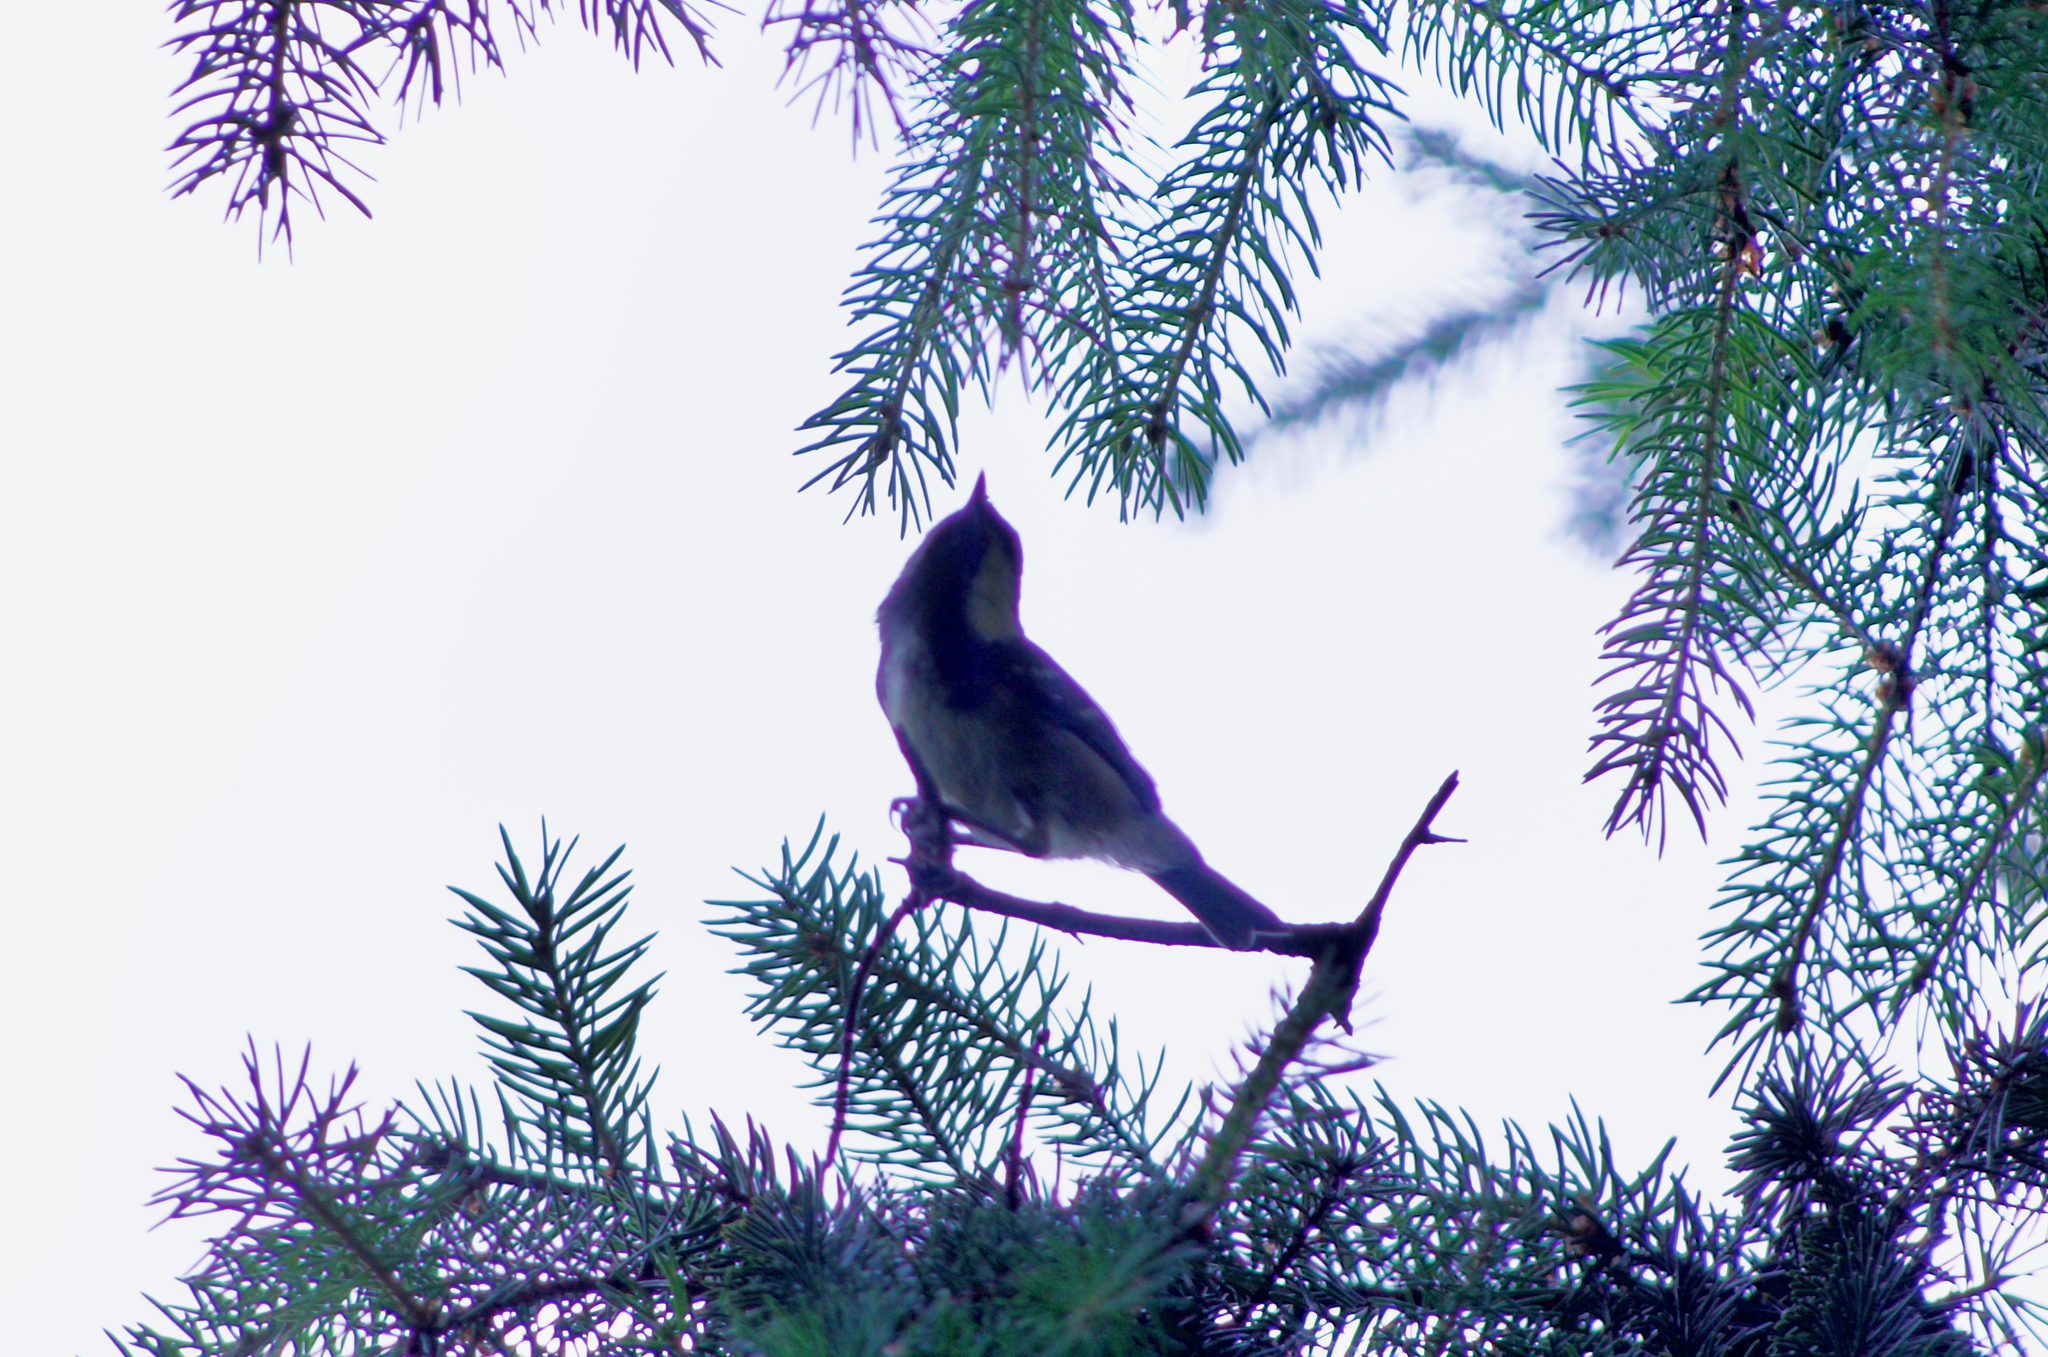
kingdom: Animalia
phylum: Chordata
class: Aves
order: Passeriformes
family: Paridae
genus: Periparus
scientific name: Periparus ater
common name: Coal tit
